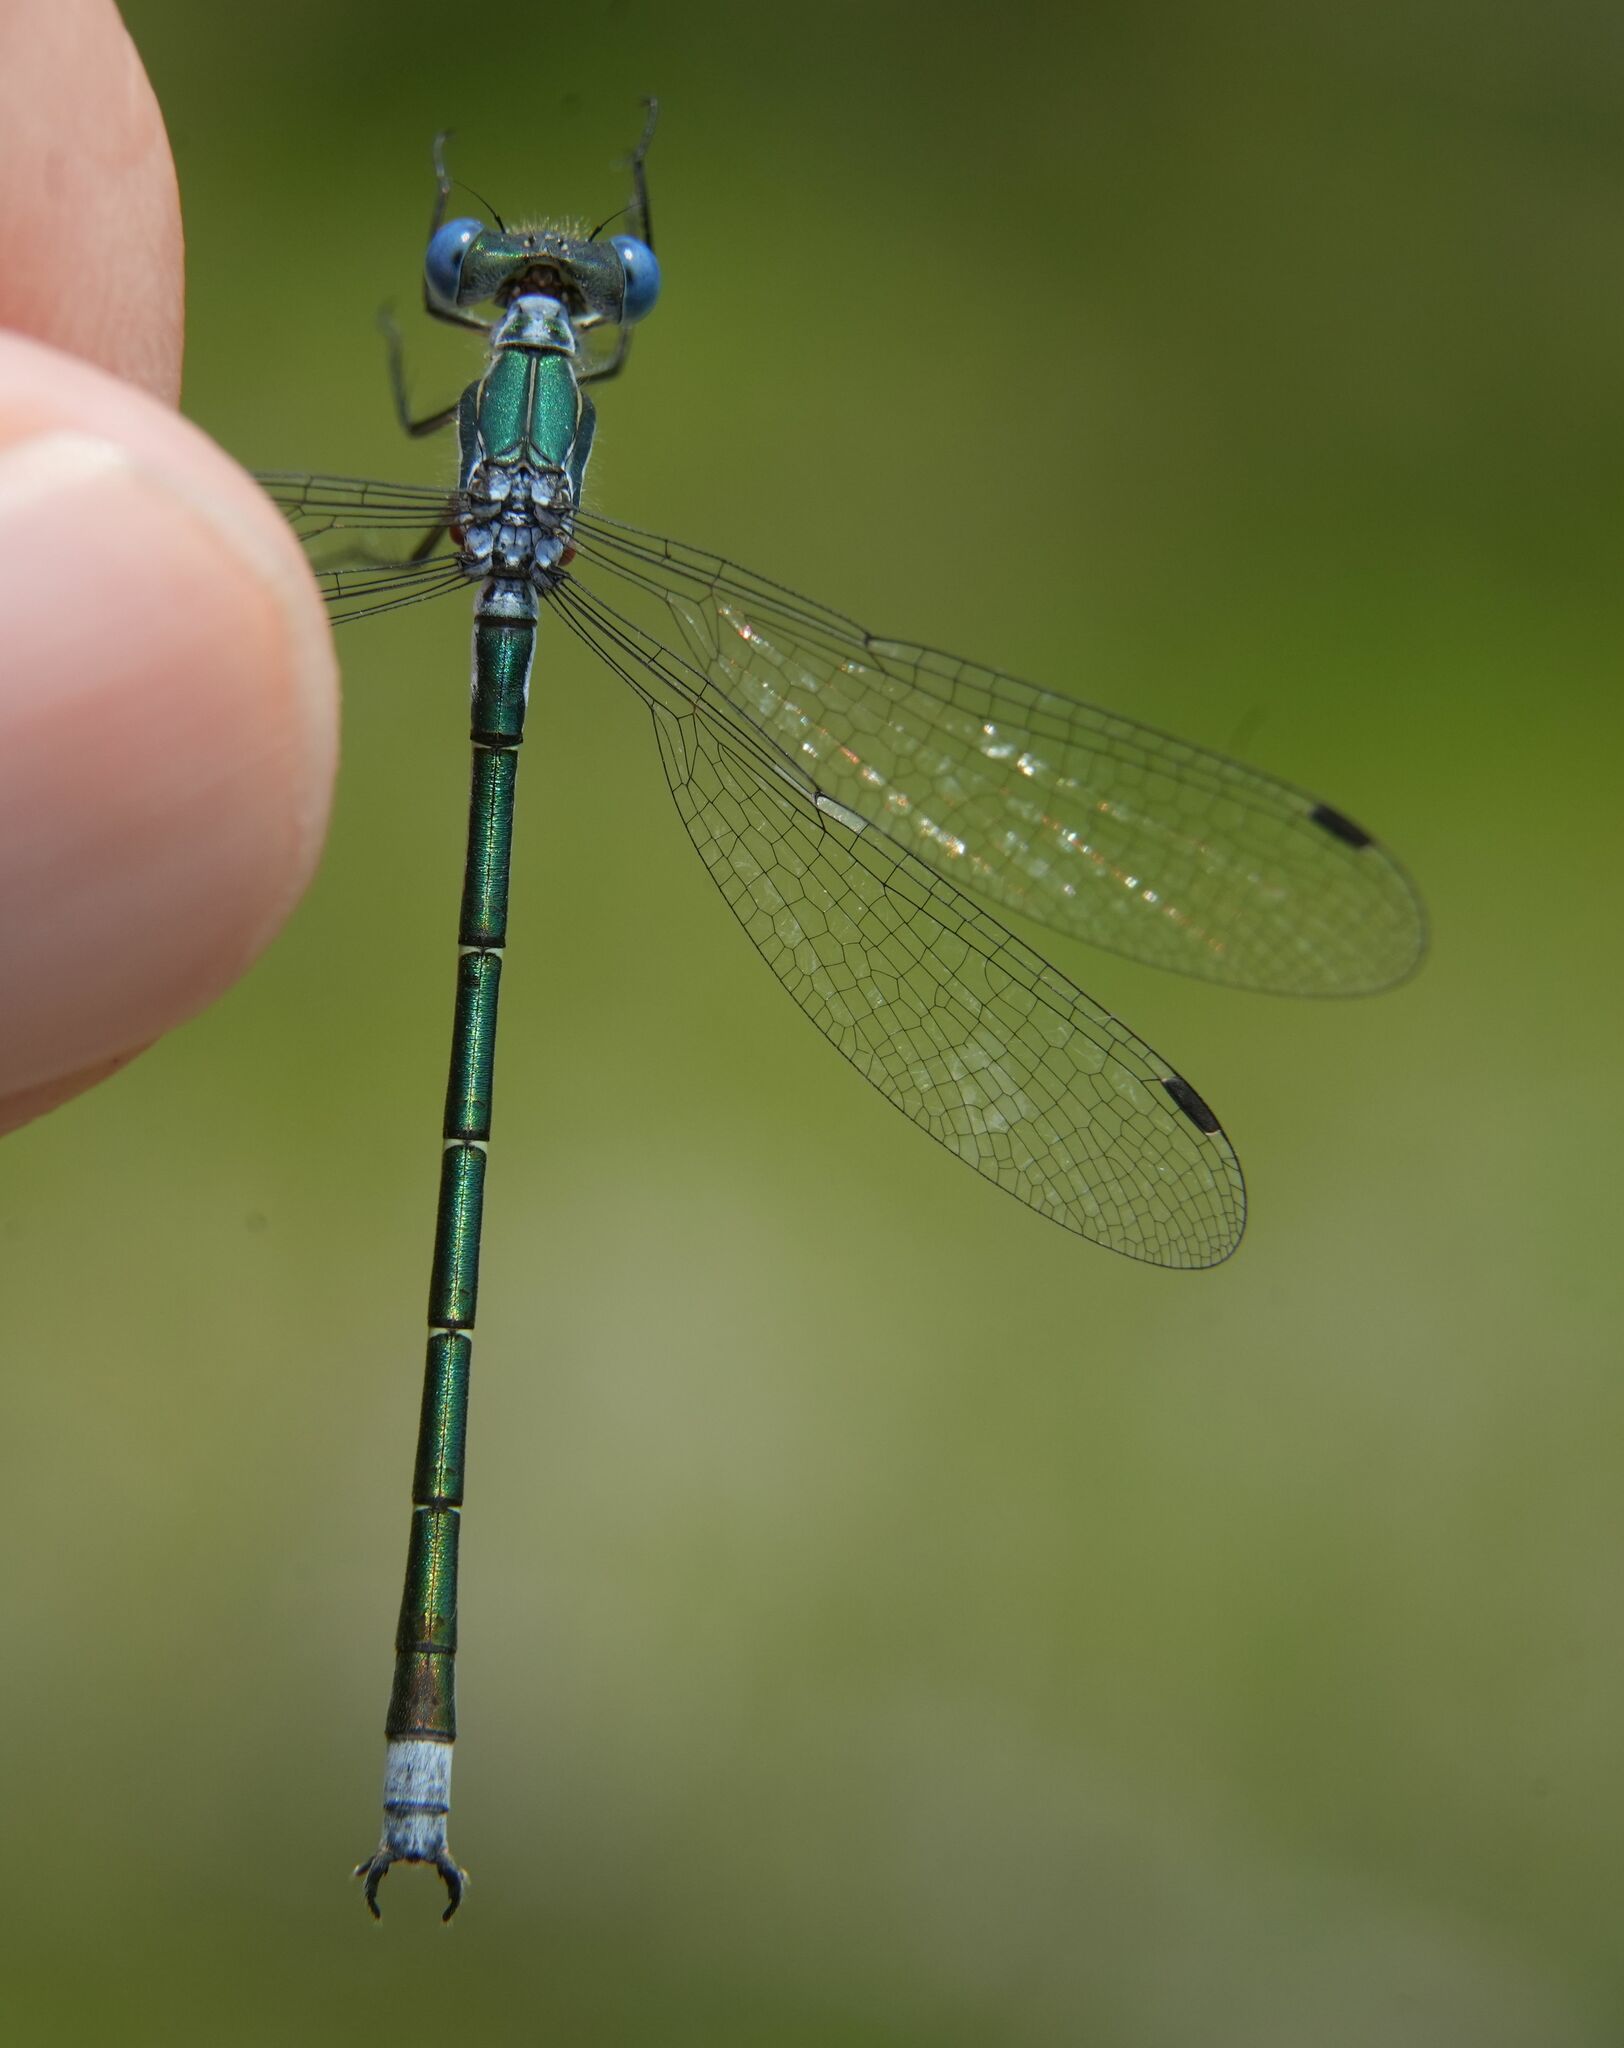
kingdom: Animalia
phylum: Arthropoda
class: Insecta
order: Odonata
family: Lestidae
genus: Lestes
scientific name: Lestes dryas
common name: Scarce emerald damselfly
